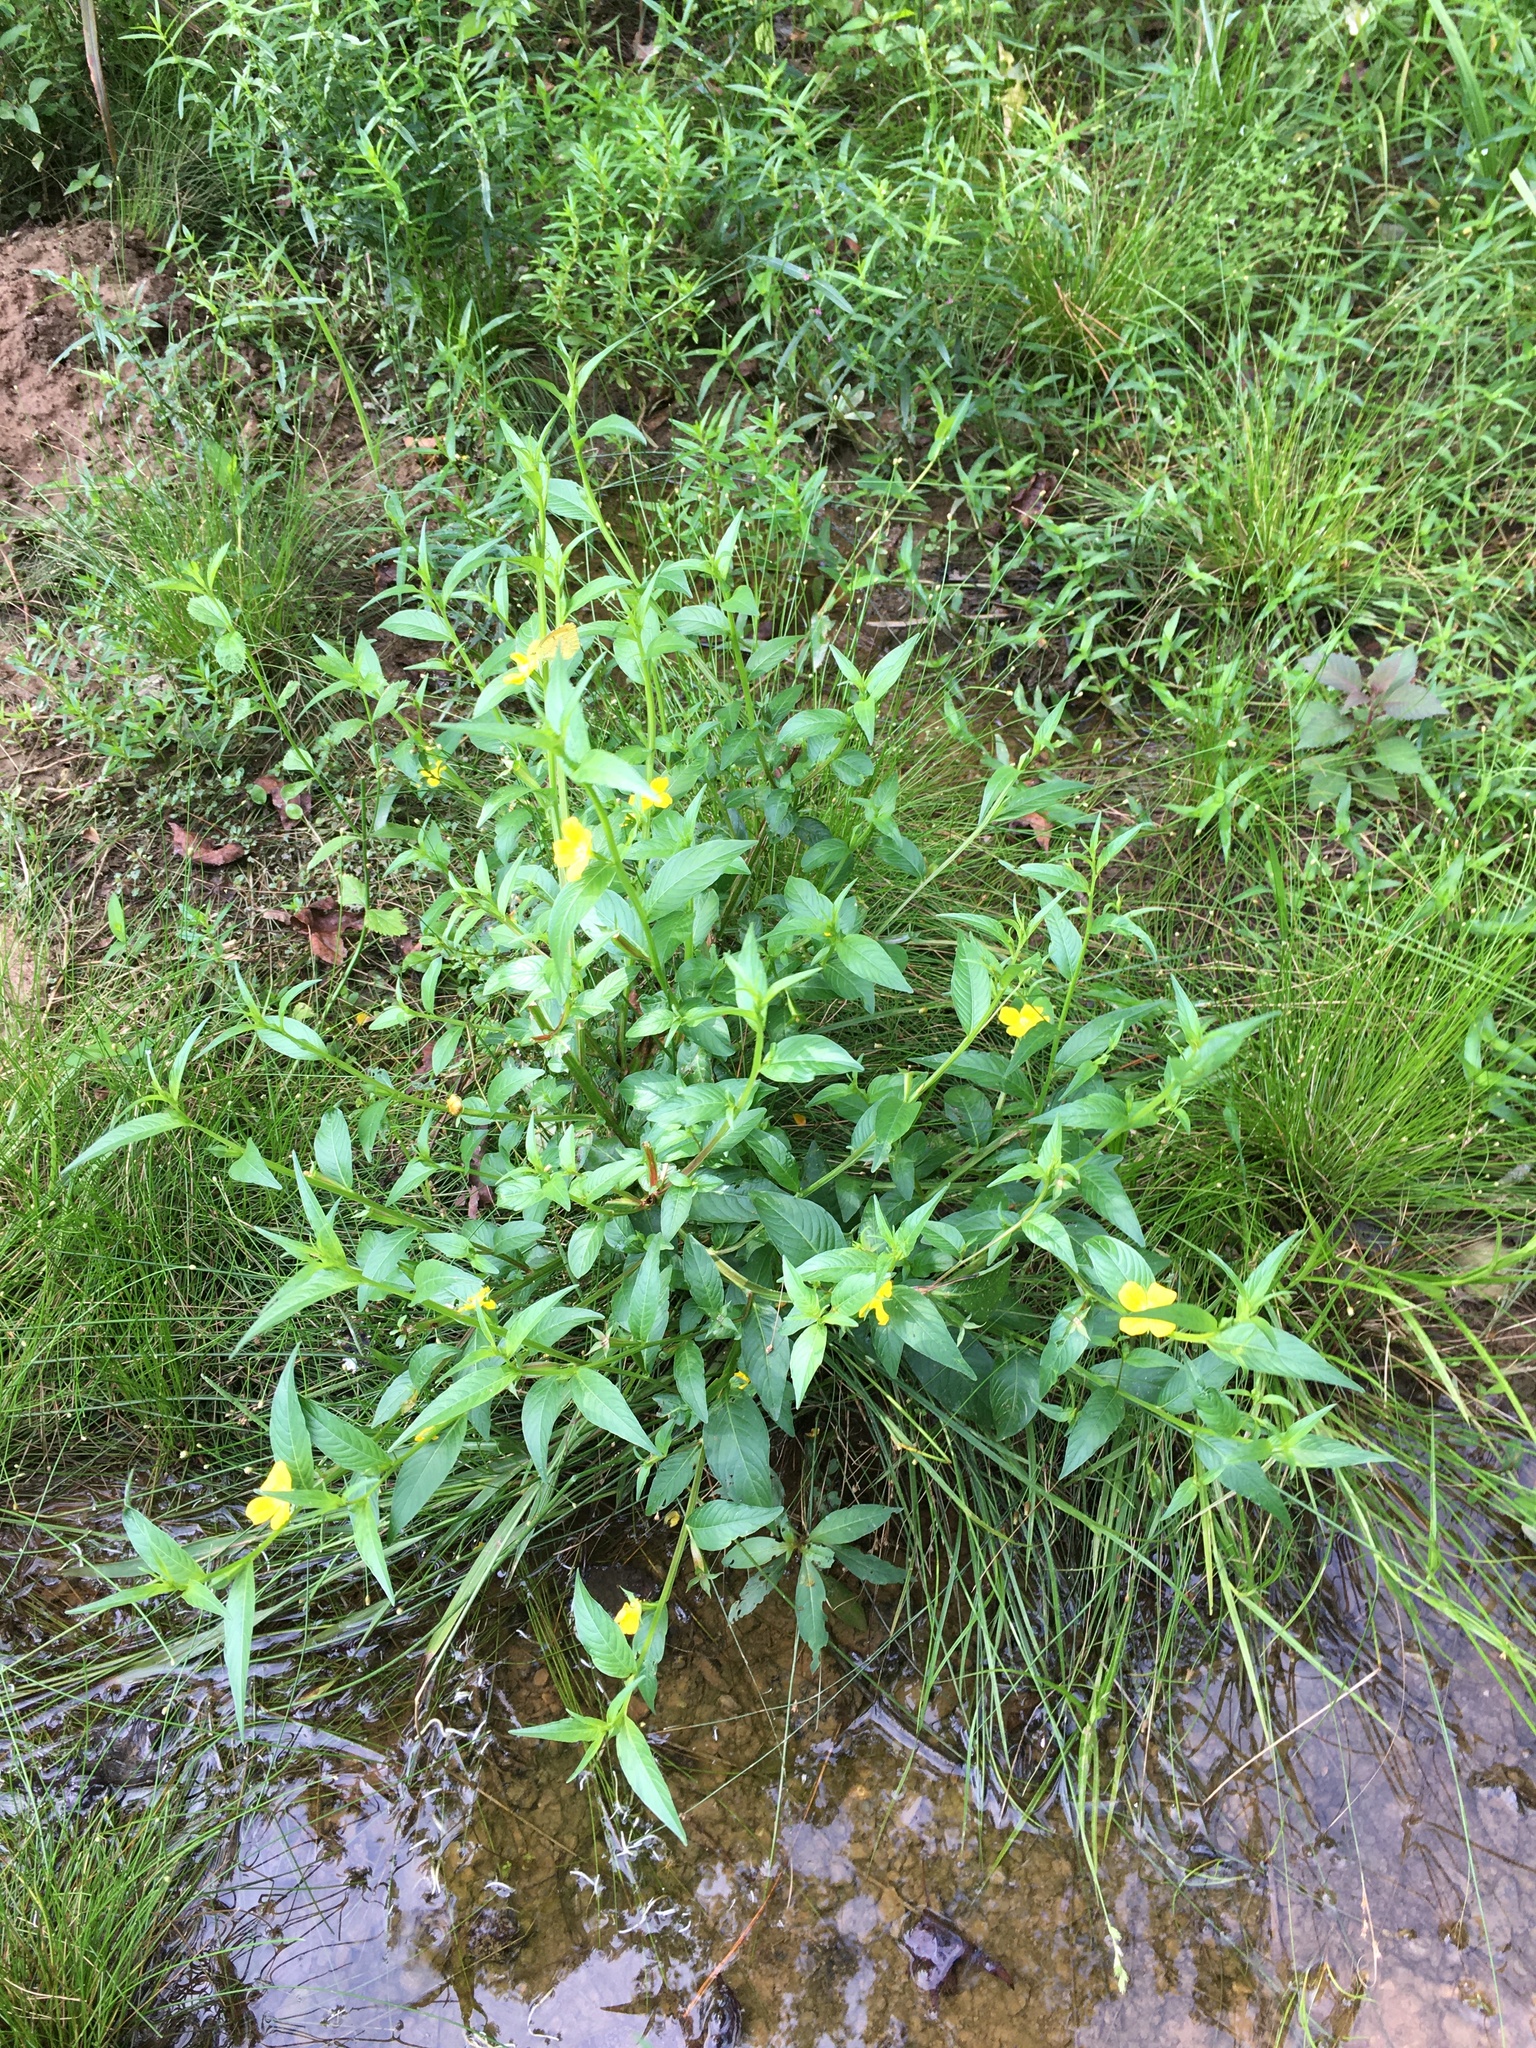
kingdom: Plantae
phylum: Tracheophyta
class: Magnoliopsida
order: Myrtales
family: Onagraceae
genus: Ludwigia
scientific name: Ludwigia decurrens
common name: Winged water-primrose
